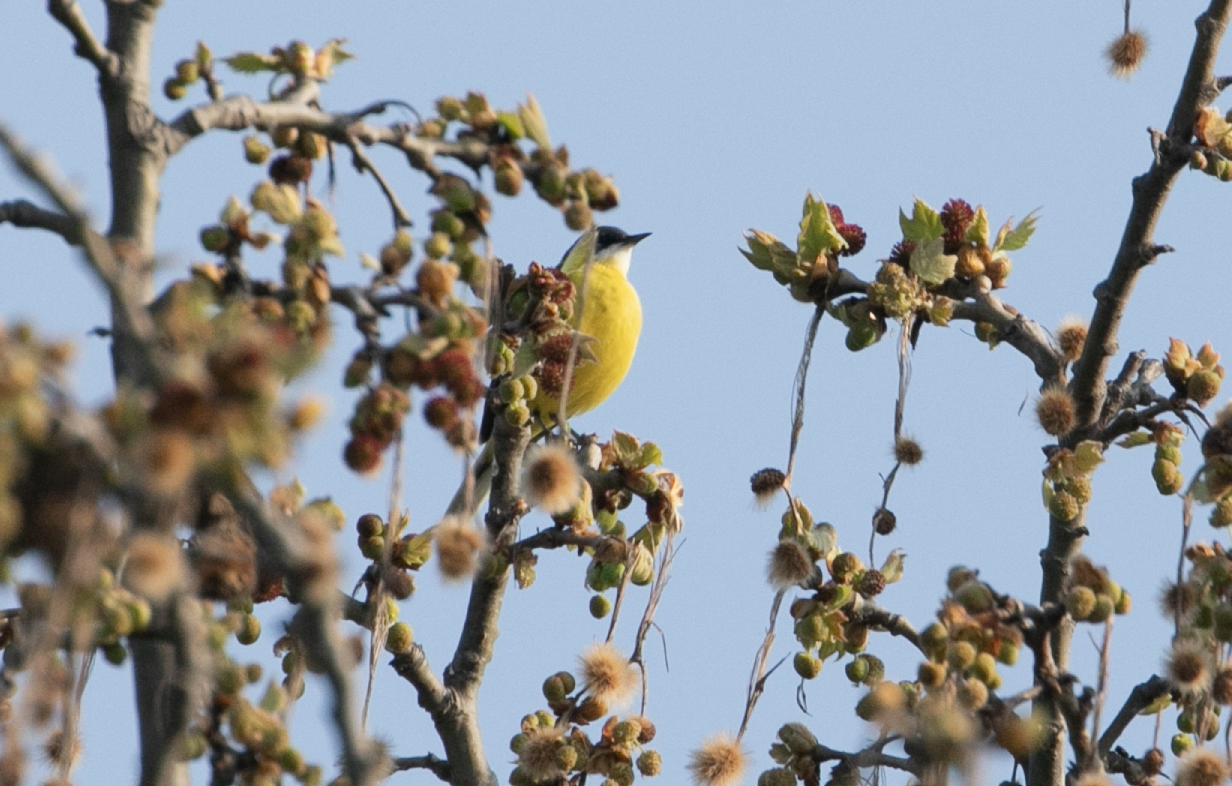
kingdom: Animalia
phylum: Chordata
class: Aves
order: Passeriformes
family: Motacillidae
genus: Motacilla
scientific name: Motacilla flava
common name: Western yellow wagtail
